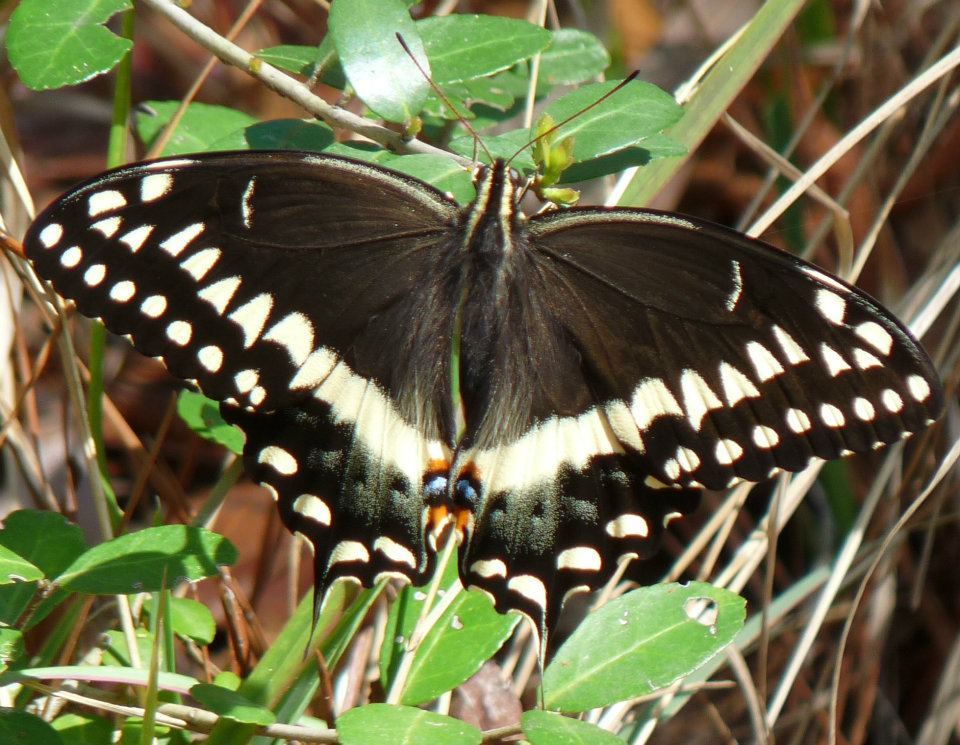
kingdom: Animalia
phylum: Arthropoda
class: Insecta
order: Lepidoptera
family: Papilionidae
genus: Papilio
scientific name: Papilio palamedes
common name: Palamedes swallowtail
